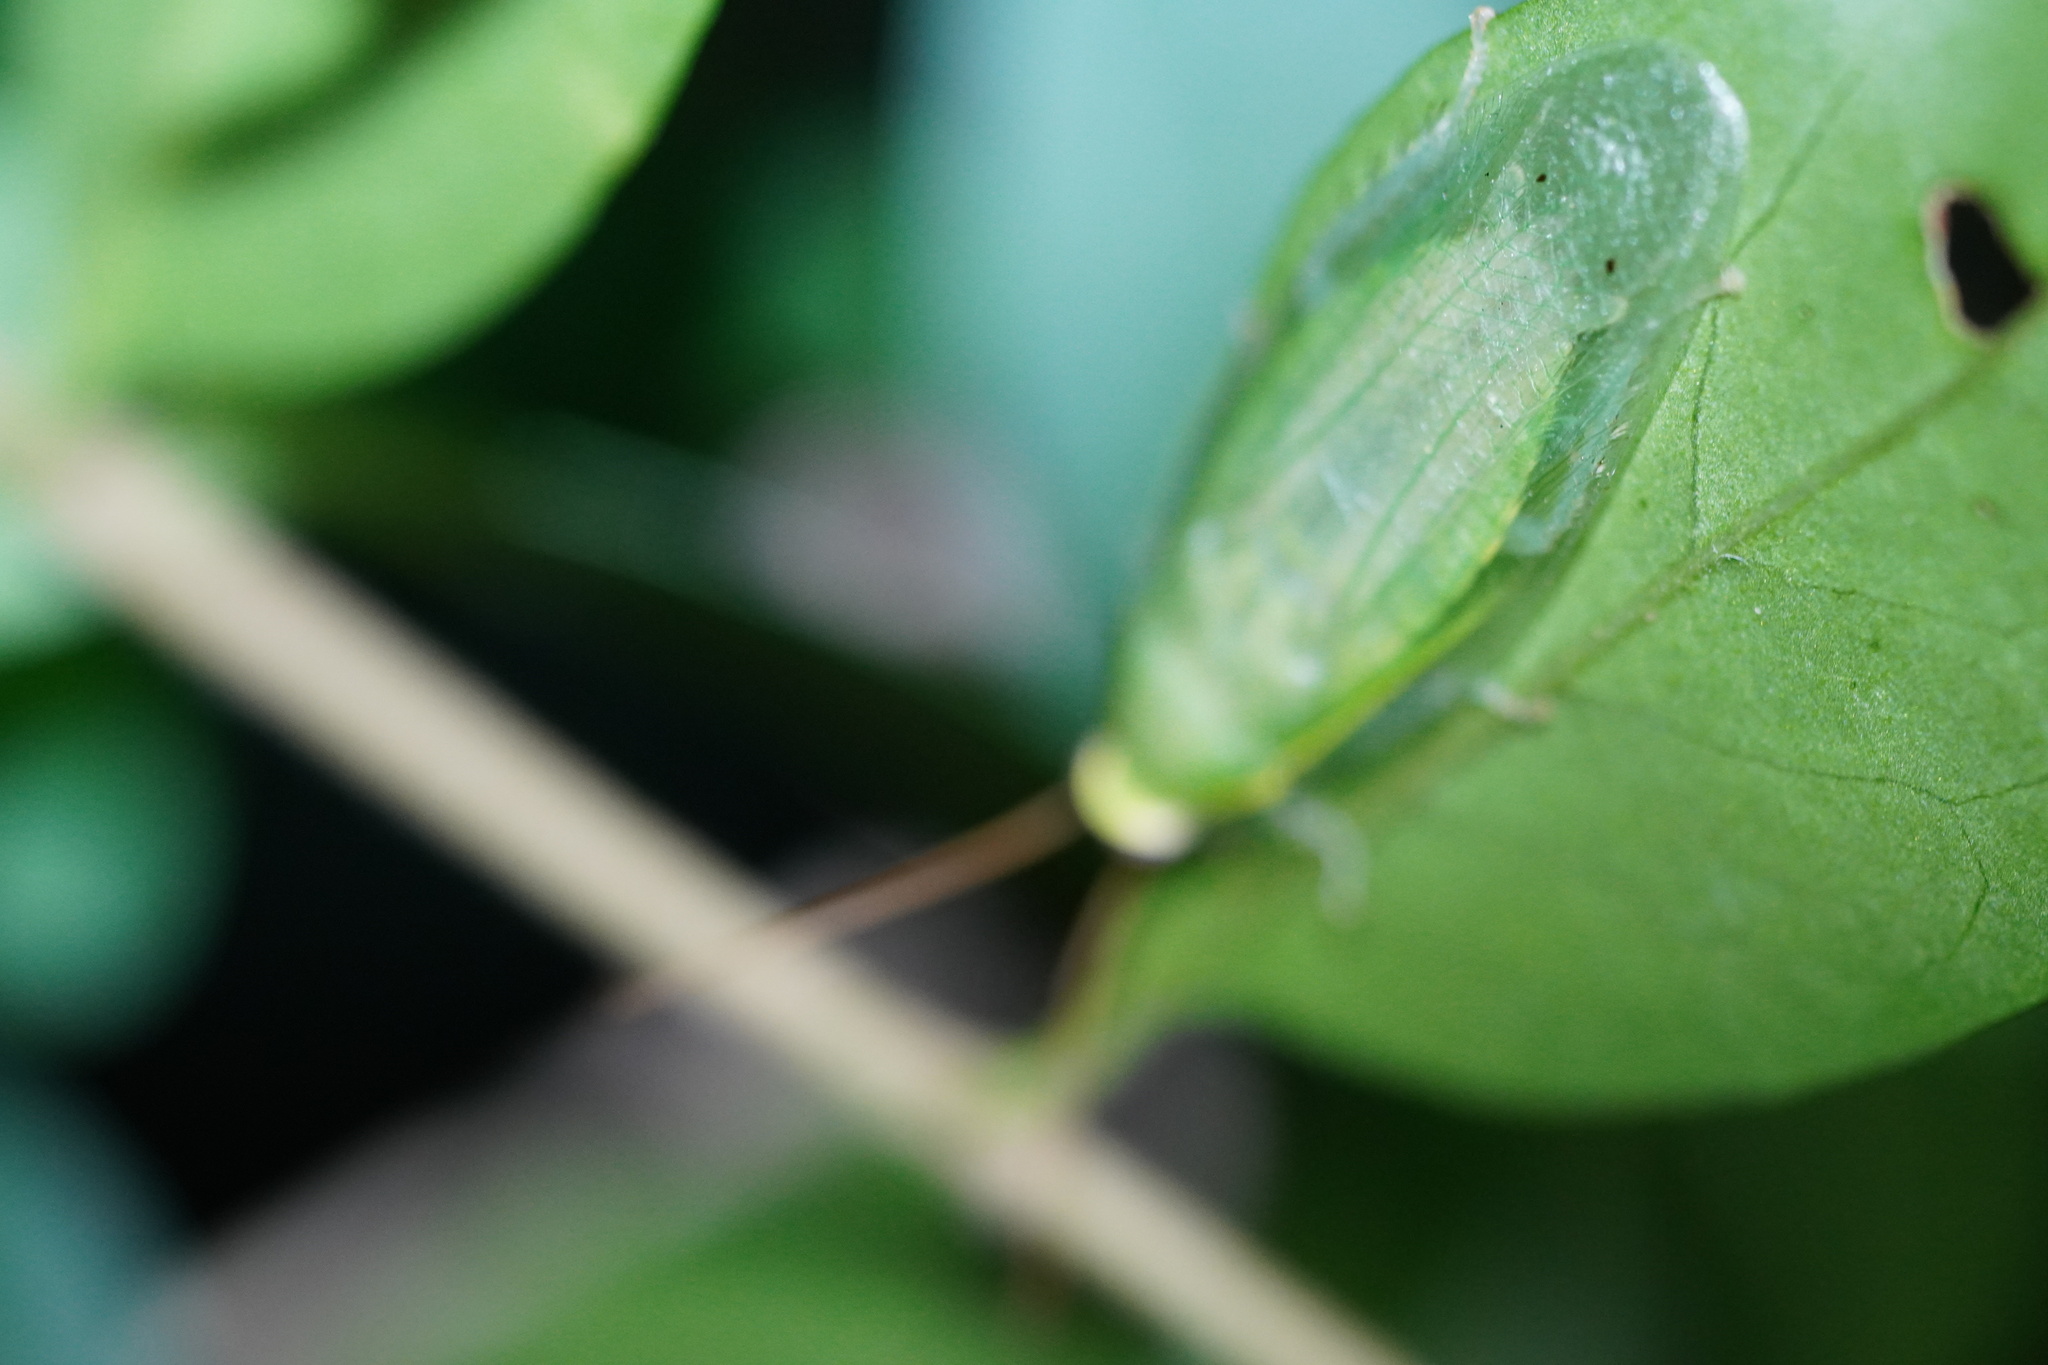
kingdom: Animalia
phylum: Arthropoda
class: Insecta
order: Blattodea
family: Blaberidae
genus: Panchlora
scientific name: Panchlora nivea
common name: Cuban cockroach
